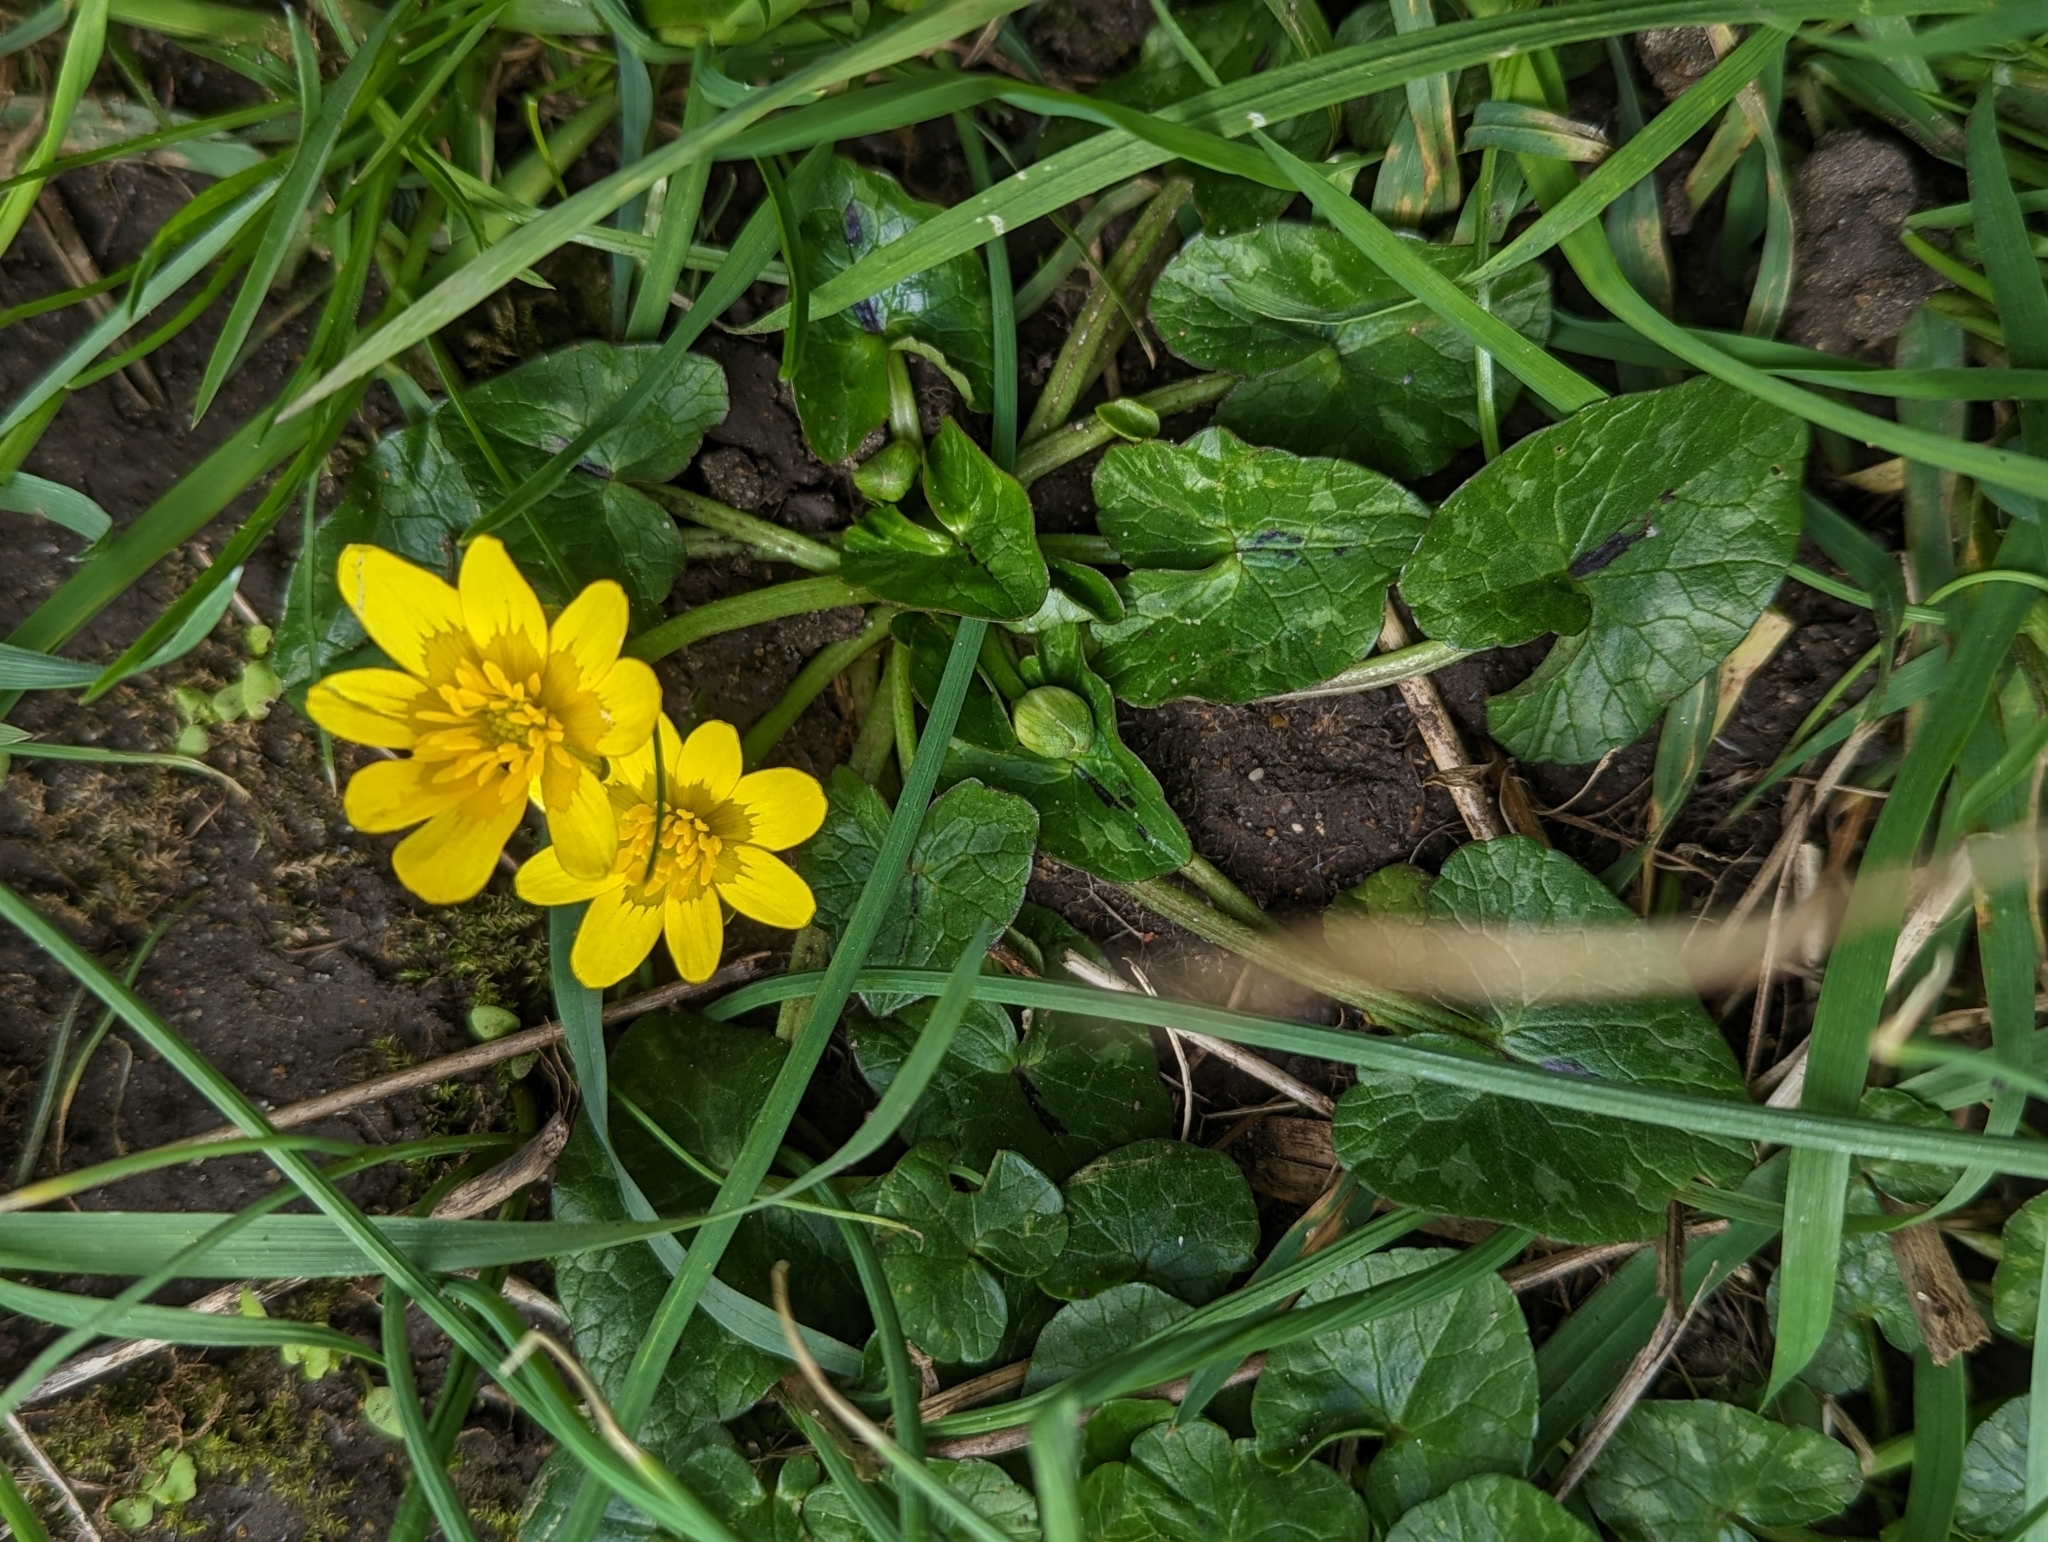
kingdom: Plantae
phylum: Tracheophyta
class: Magnoliopsida
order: Ranunculales
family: Ranunculaceae
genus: Ficaria
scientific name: Ficaria verna
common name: Lesser celandine
